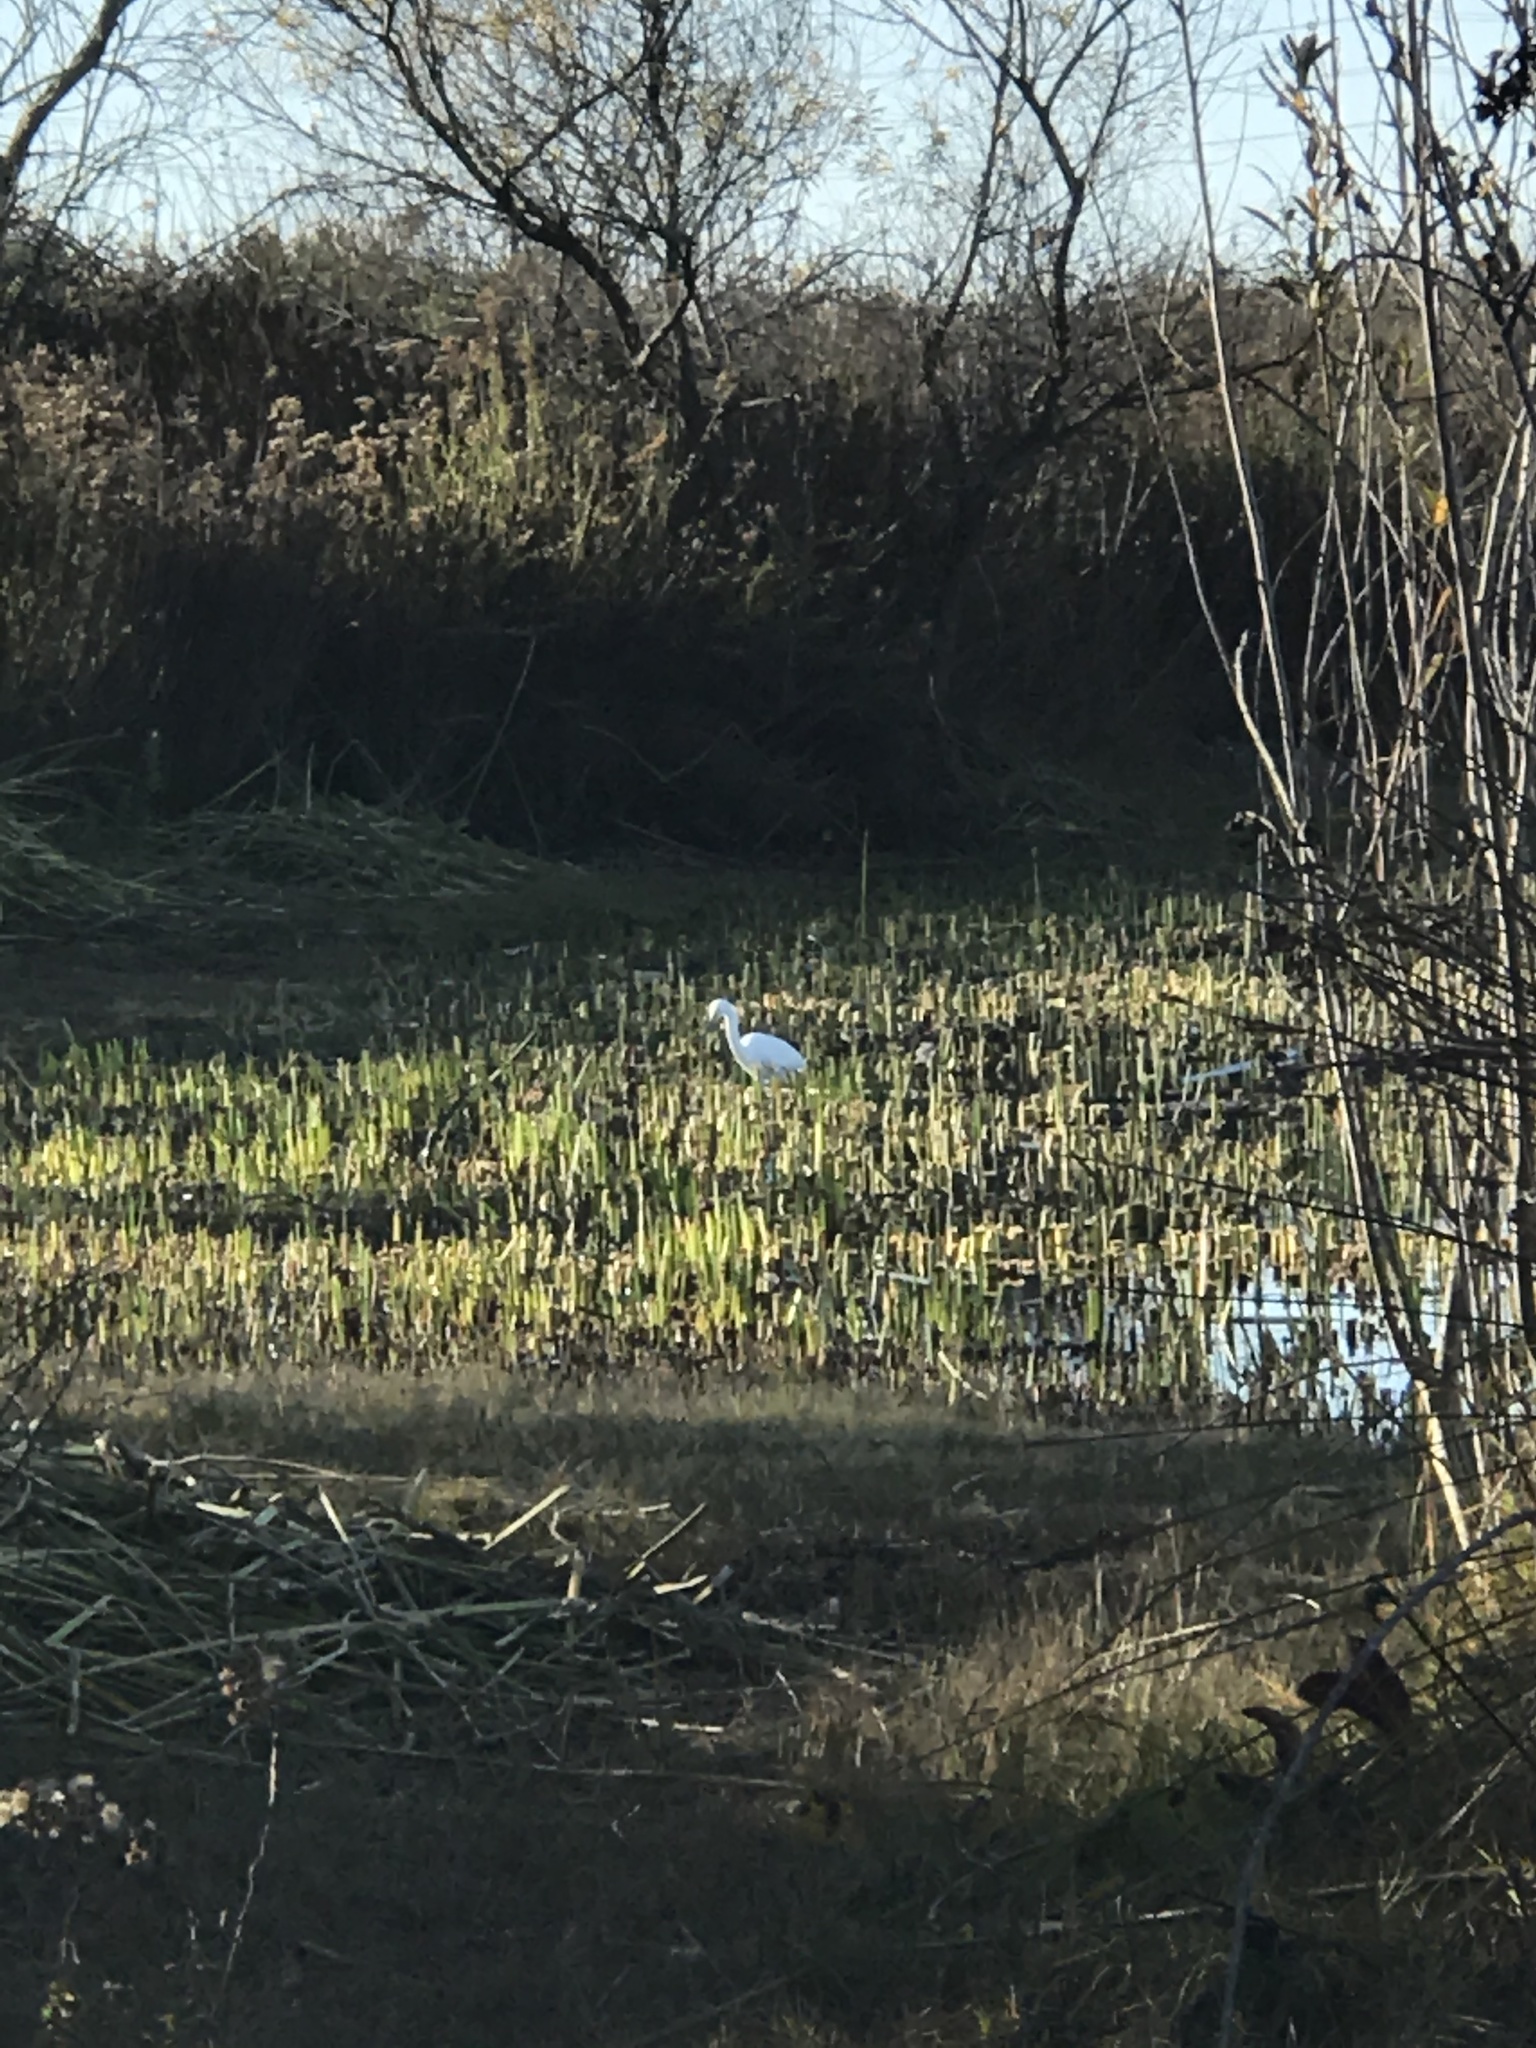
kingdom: Animalia
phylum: Chordata
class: Aves
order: Pelecaniformes
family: Ardeidae
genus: Egretta
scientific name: Egretta thula
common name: Snowy egret
